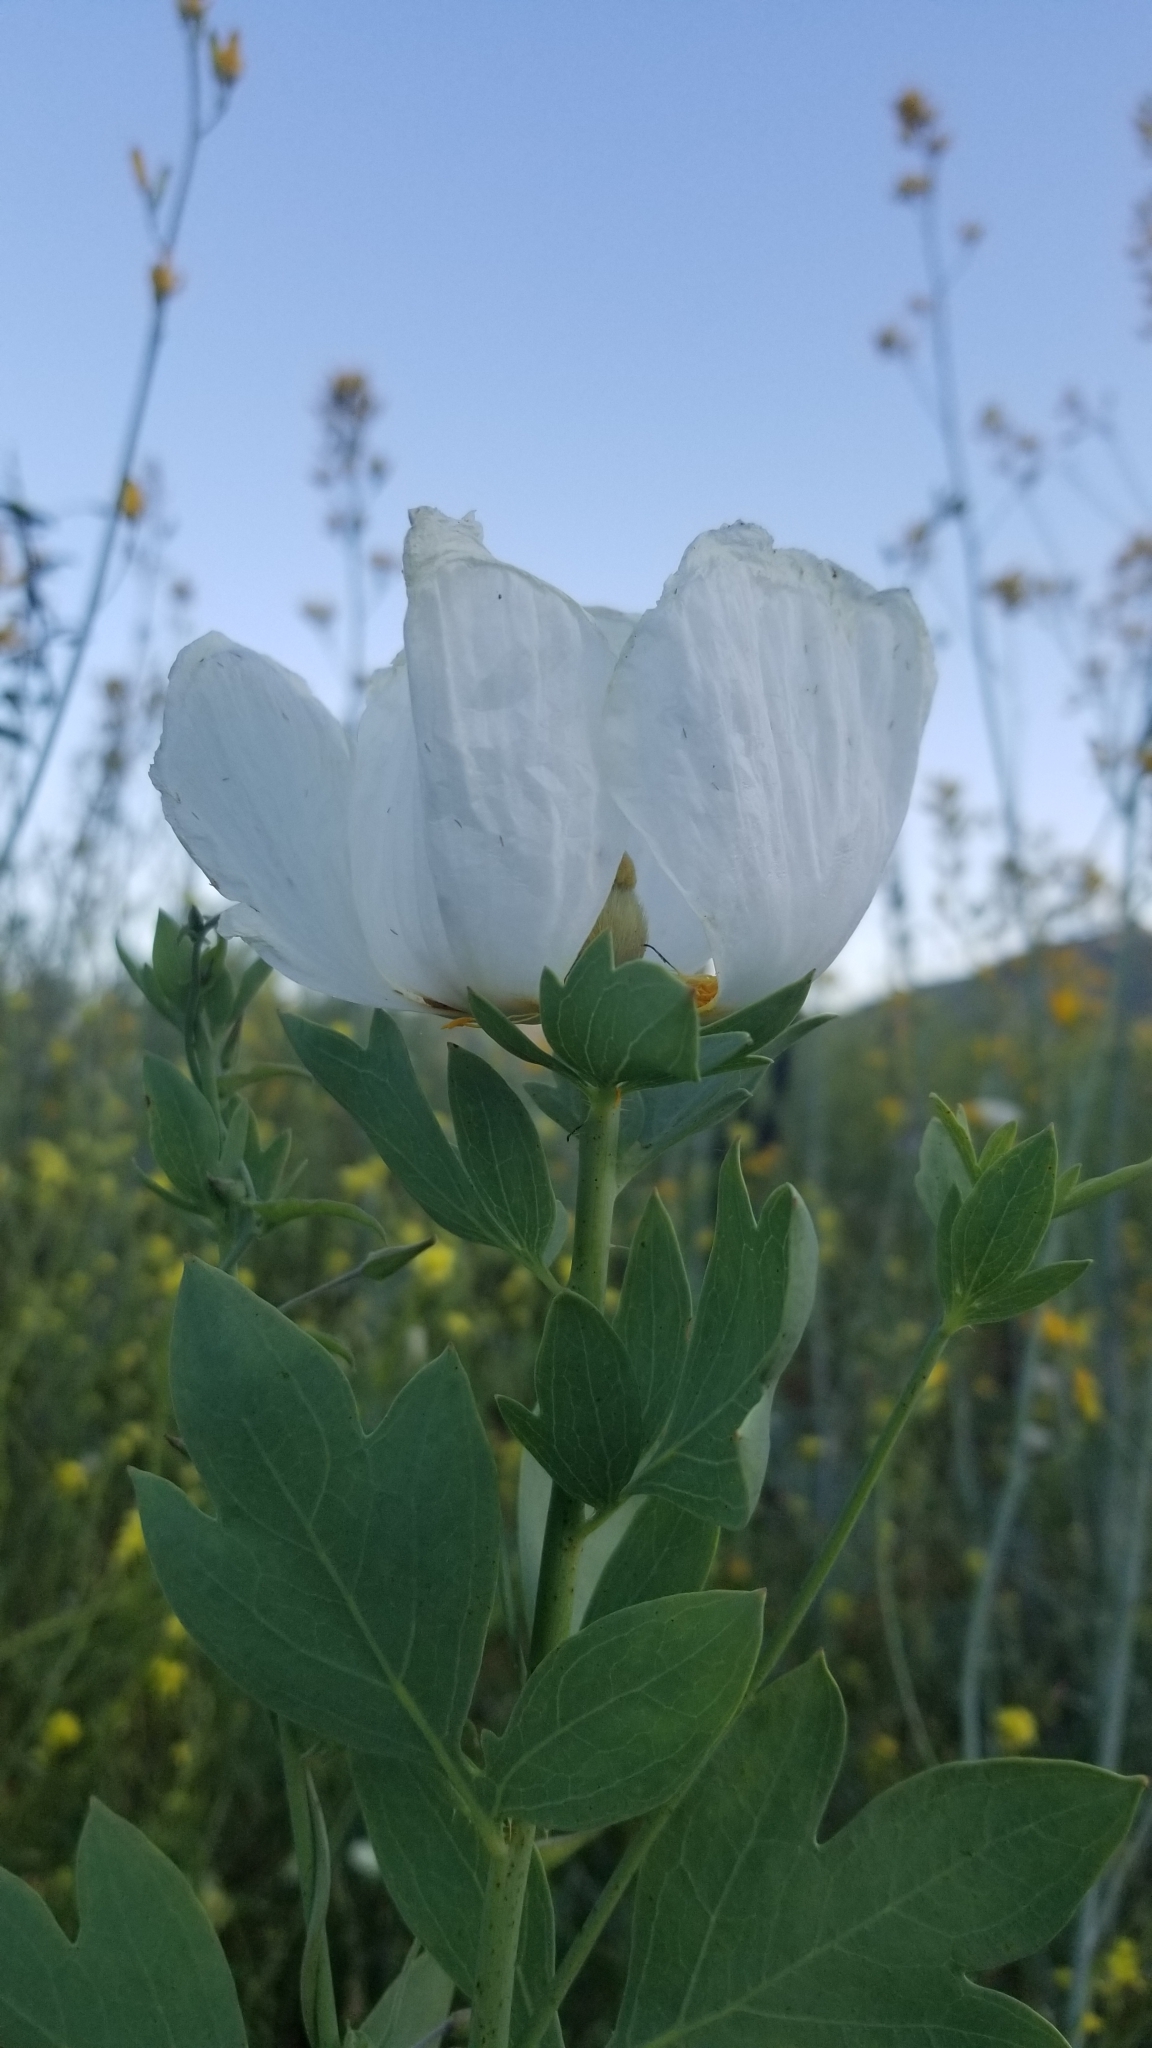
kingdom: Plantae
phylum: Tracheophyta
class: Magnoliopsida
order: Ranunculales
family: Papaveraceae
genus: Romneya
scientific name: Romneya coulteri
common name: California tree-poppy
